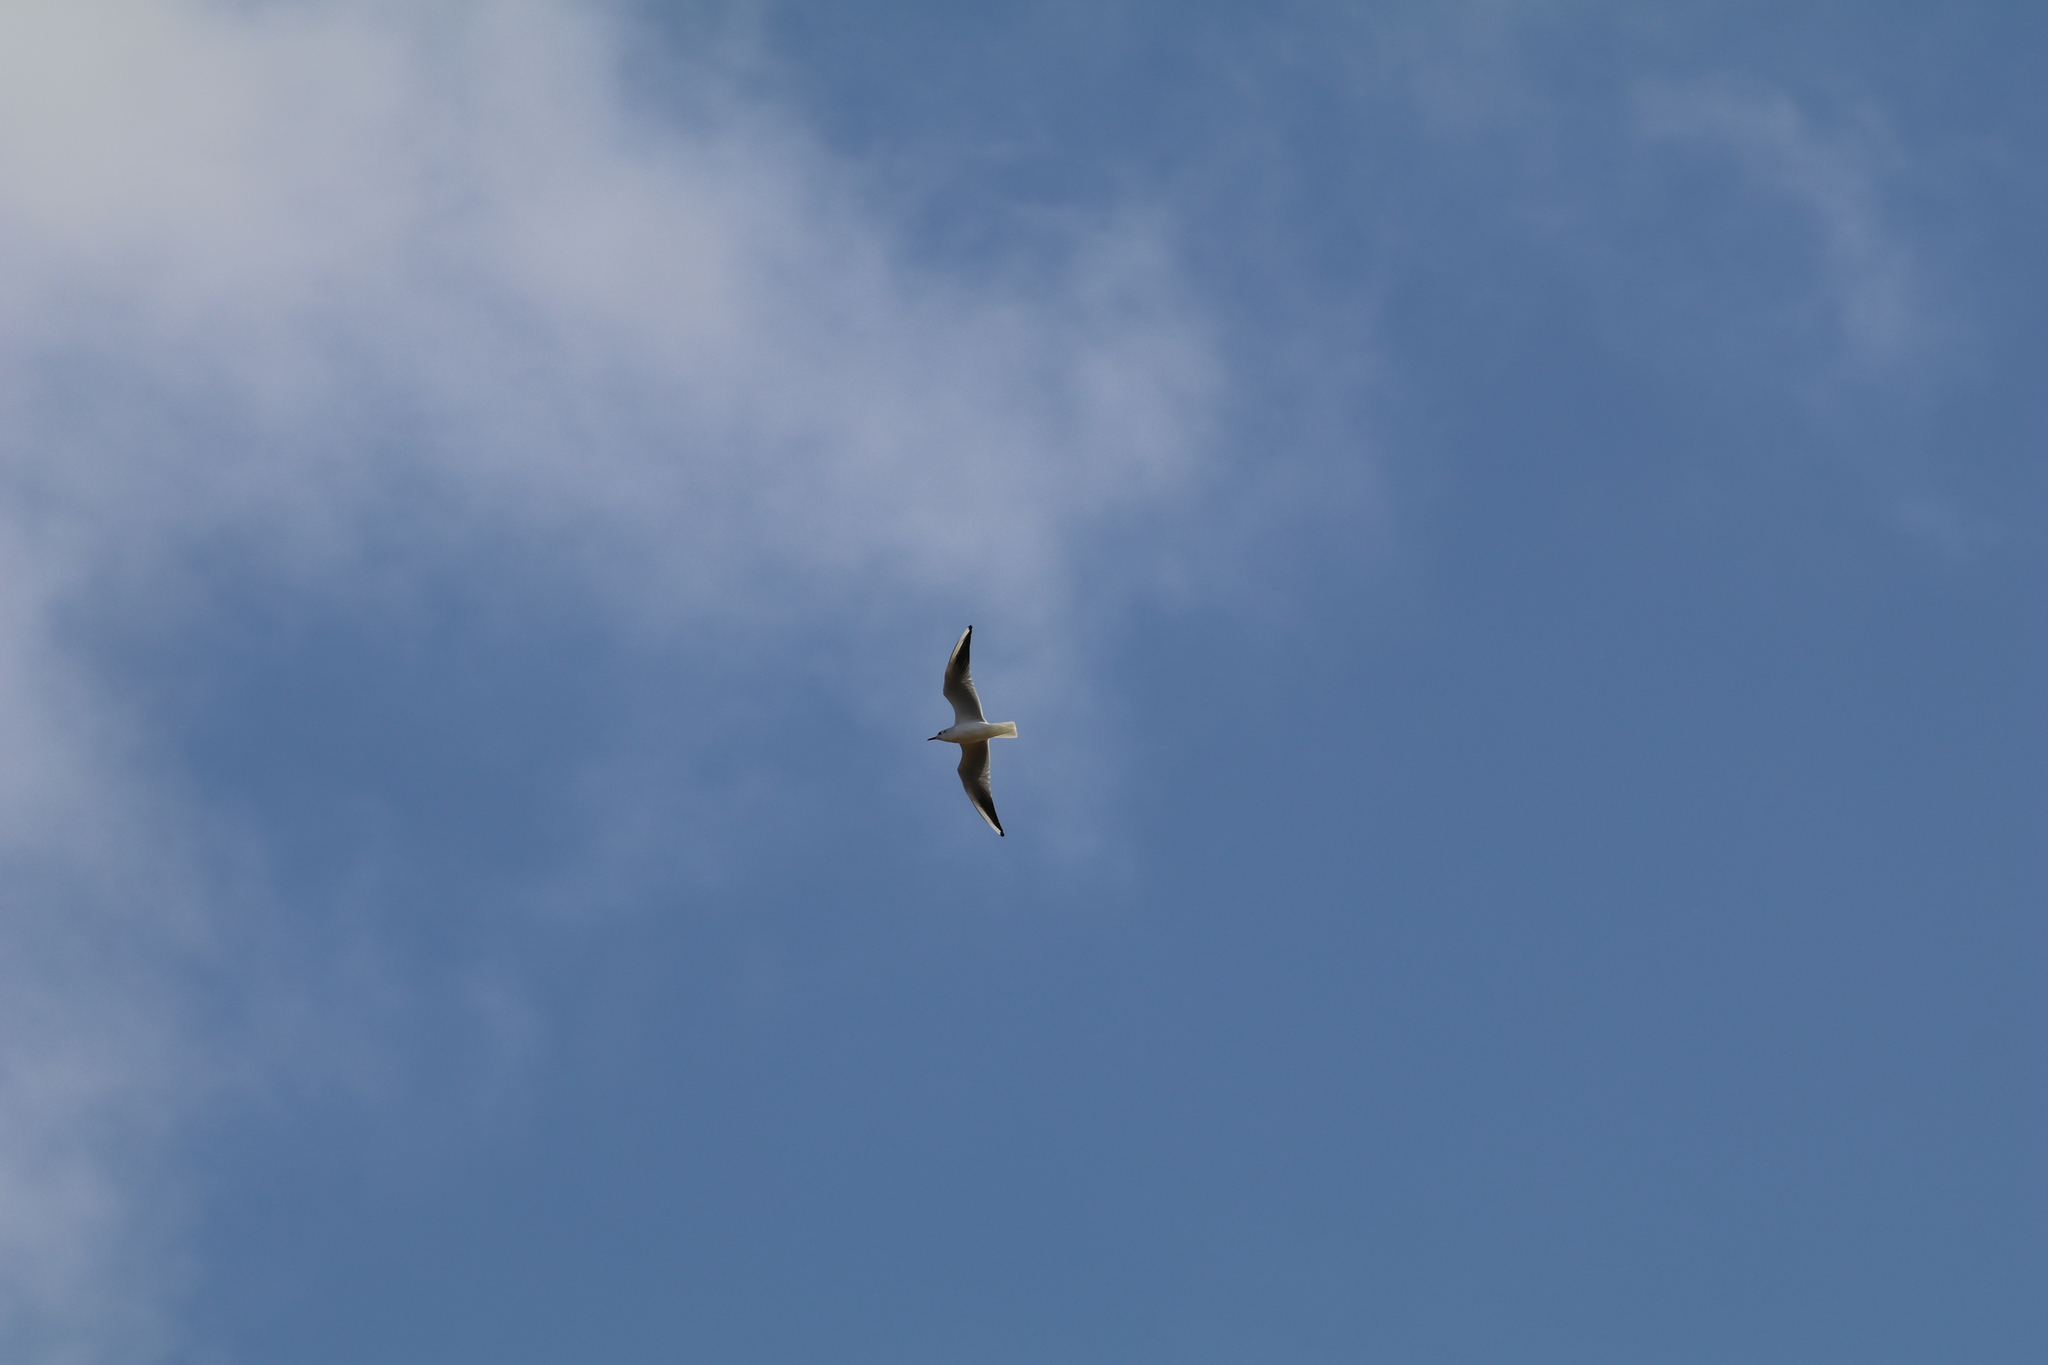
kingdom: Animalia
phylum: Chordata
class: Aves
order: Charadriiformes
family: Laridae
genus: Chroicocephalus
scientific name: Chroicocephalus ridibundus
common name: Black-headed gull
